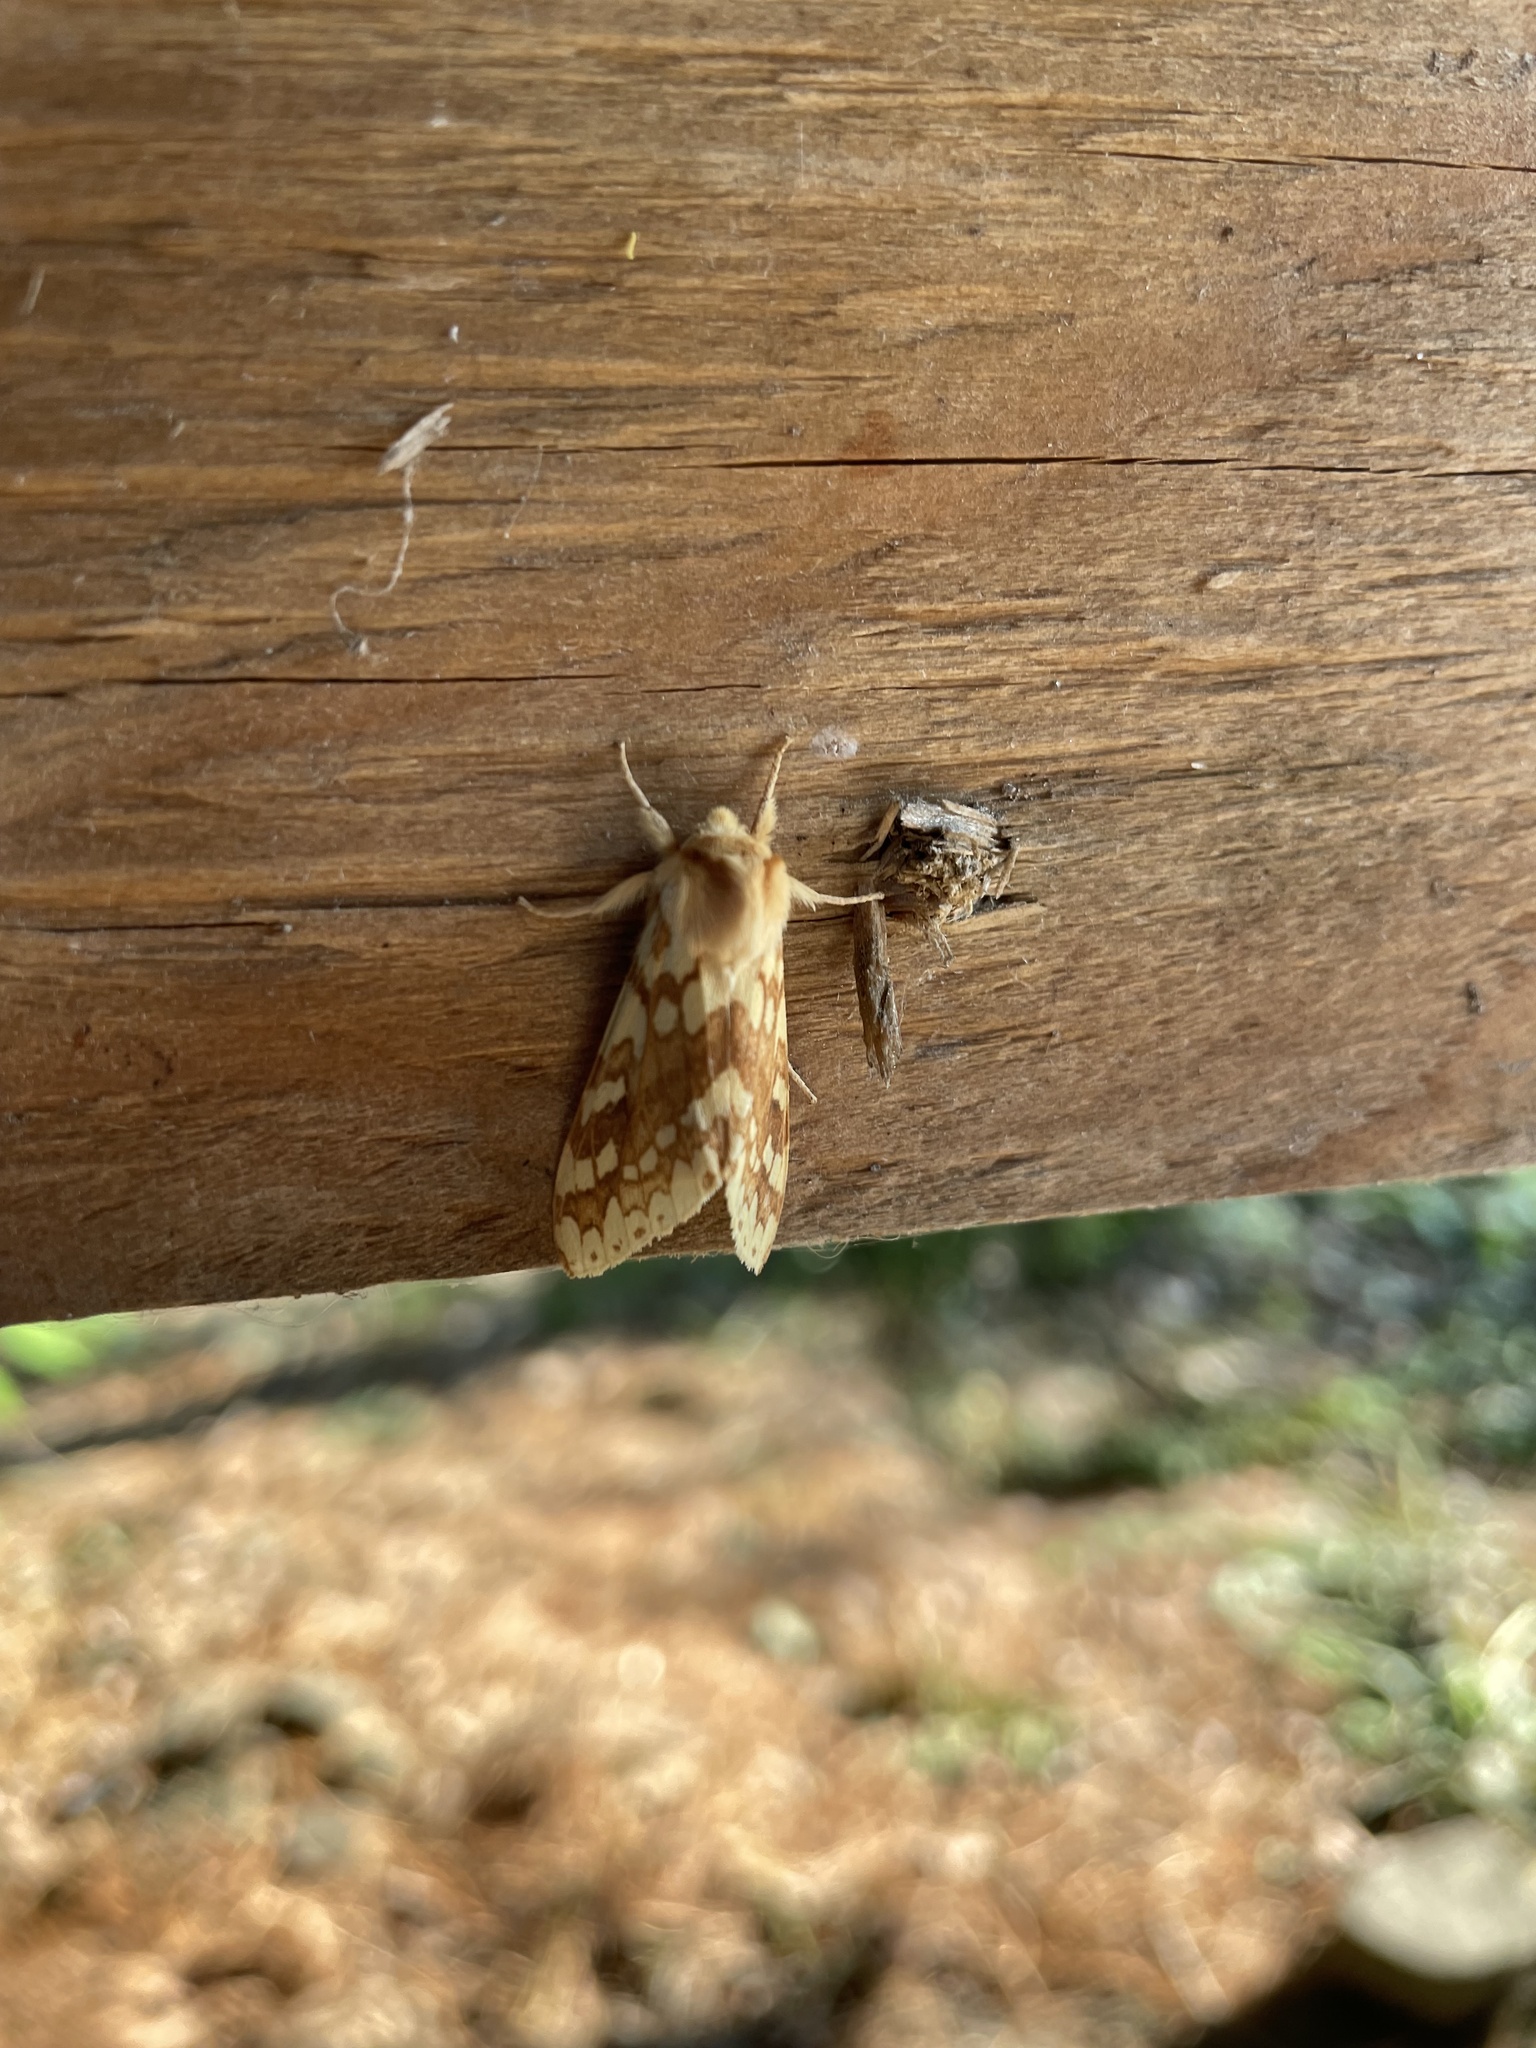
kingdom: Animalia
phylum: Arthropoda
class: Insecta
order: Lepidoptera
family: Erebidae
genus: Lophocampa
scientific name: Lophocampa maculata
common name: Spotted tussock moth
